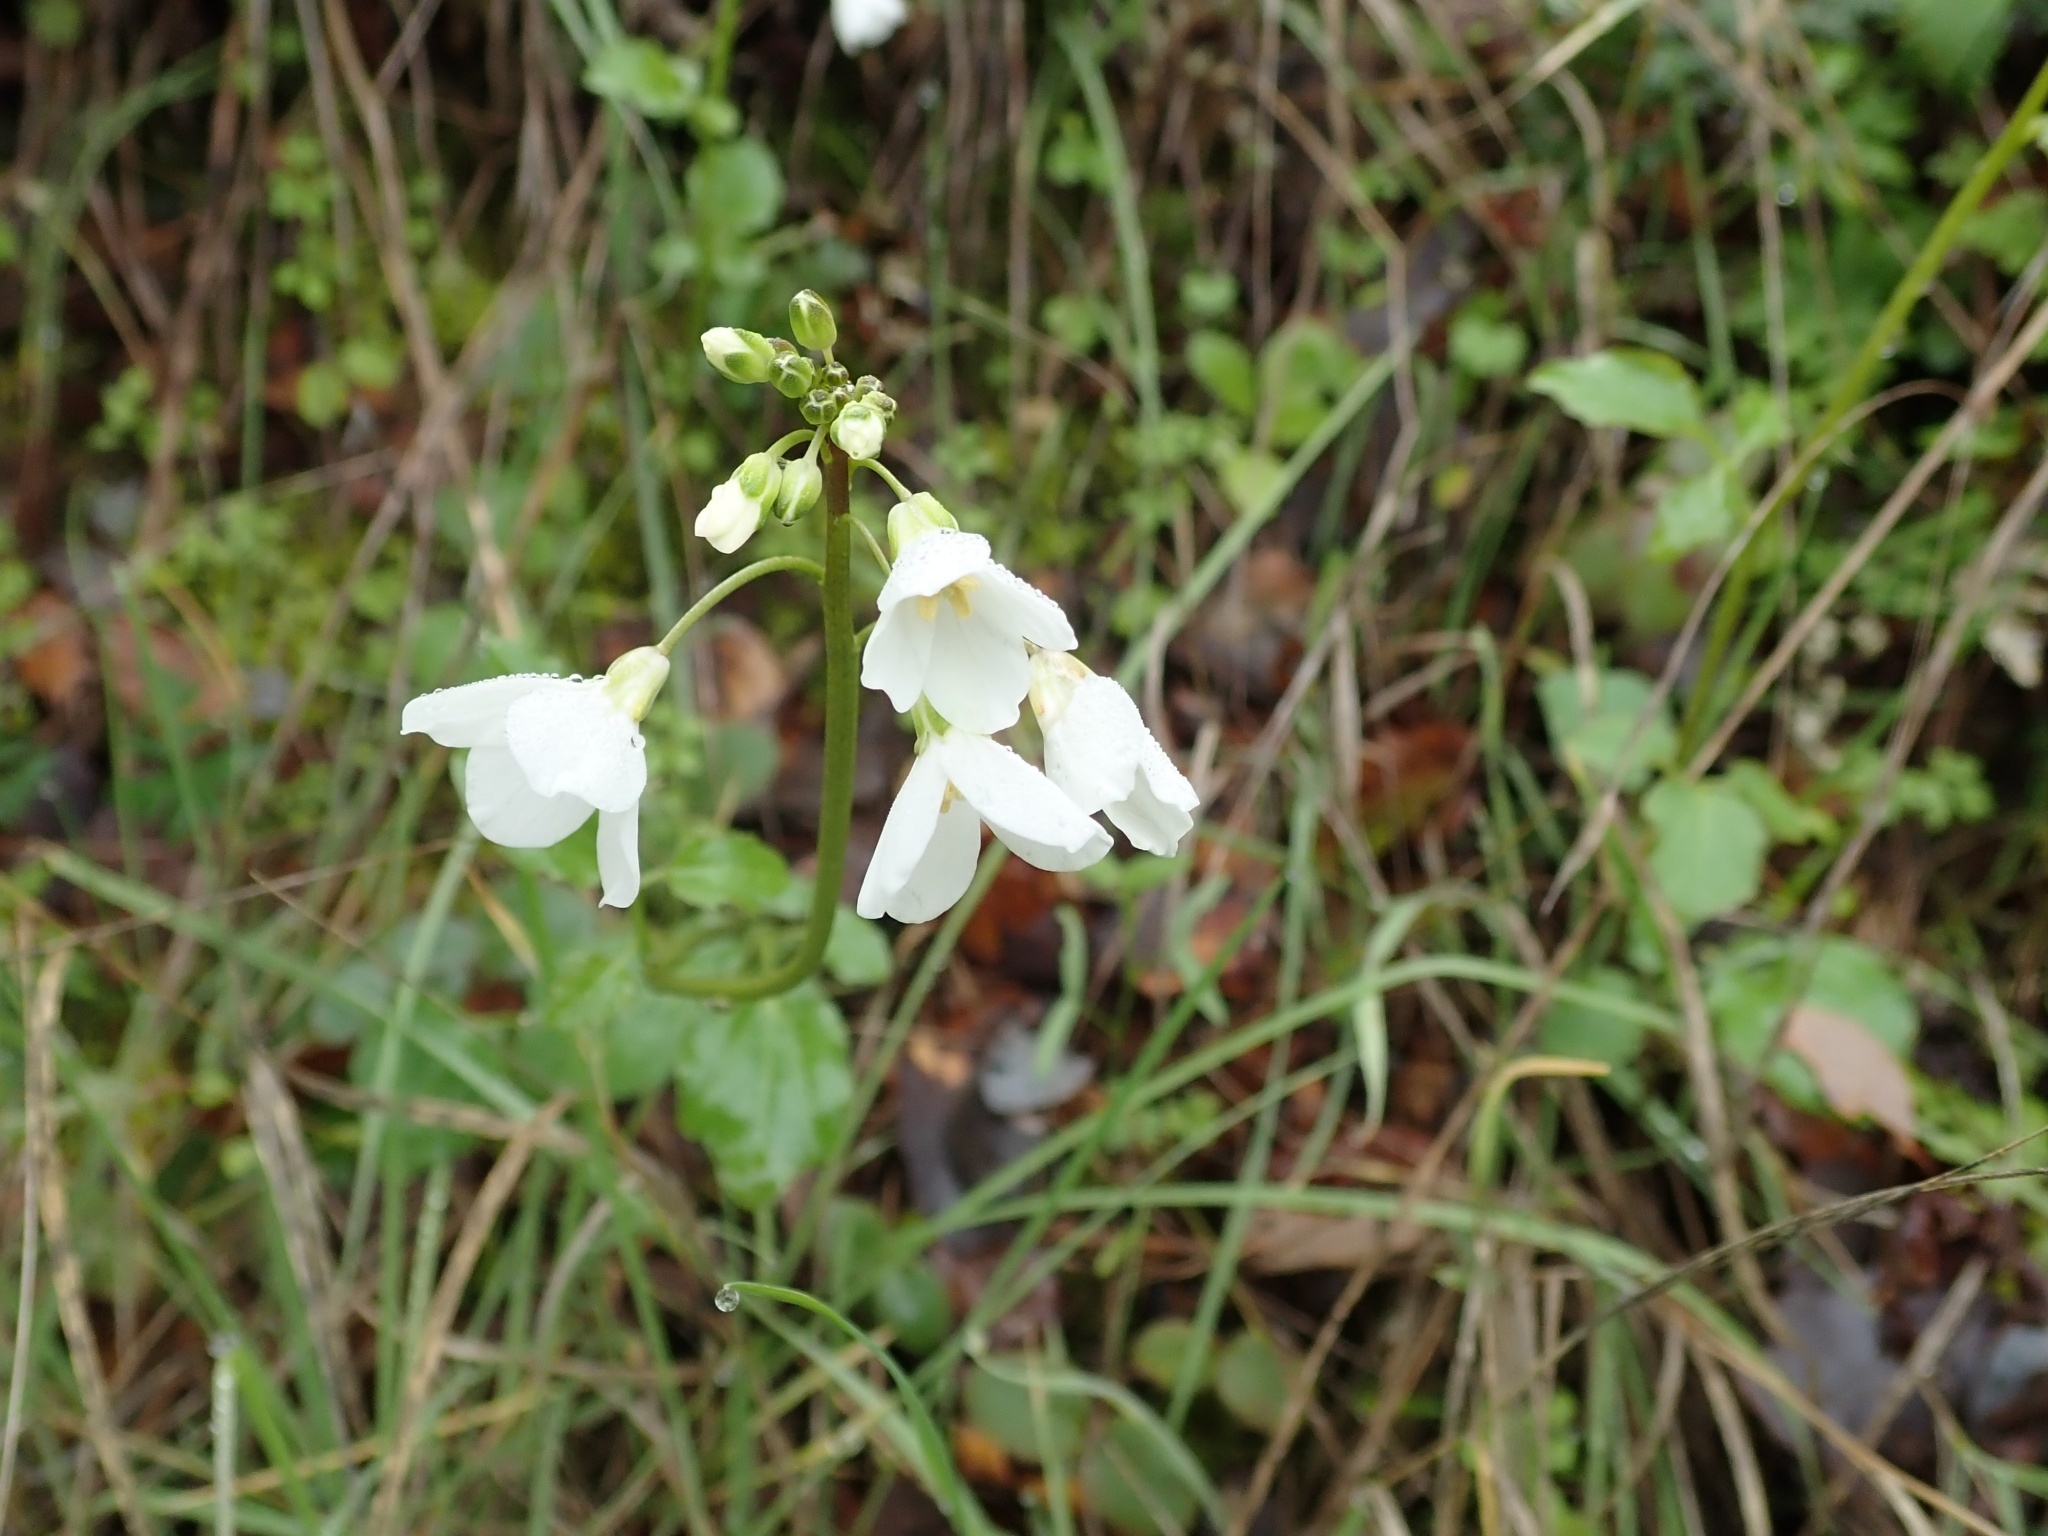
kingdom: Plantae
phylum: Tracheophyta
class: Magnoliopsida
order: Brassicales
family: Brassicaceae
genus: Cardamine
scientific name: Cardamine californica
